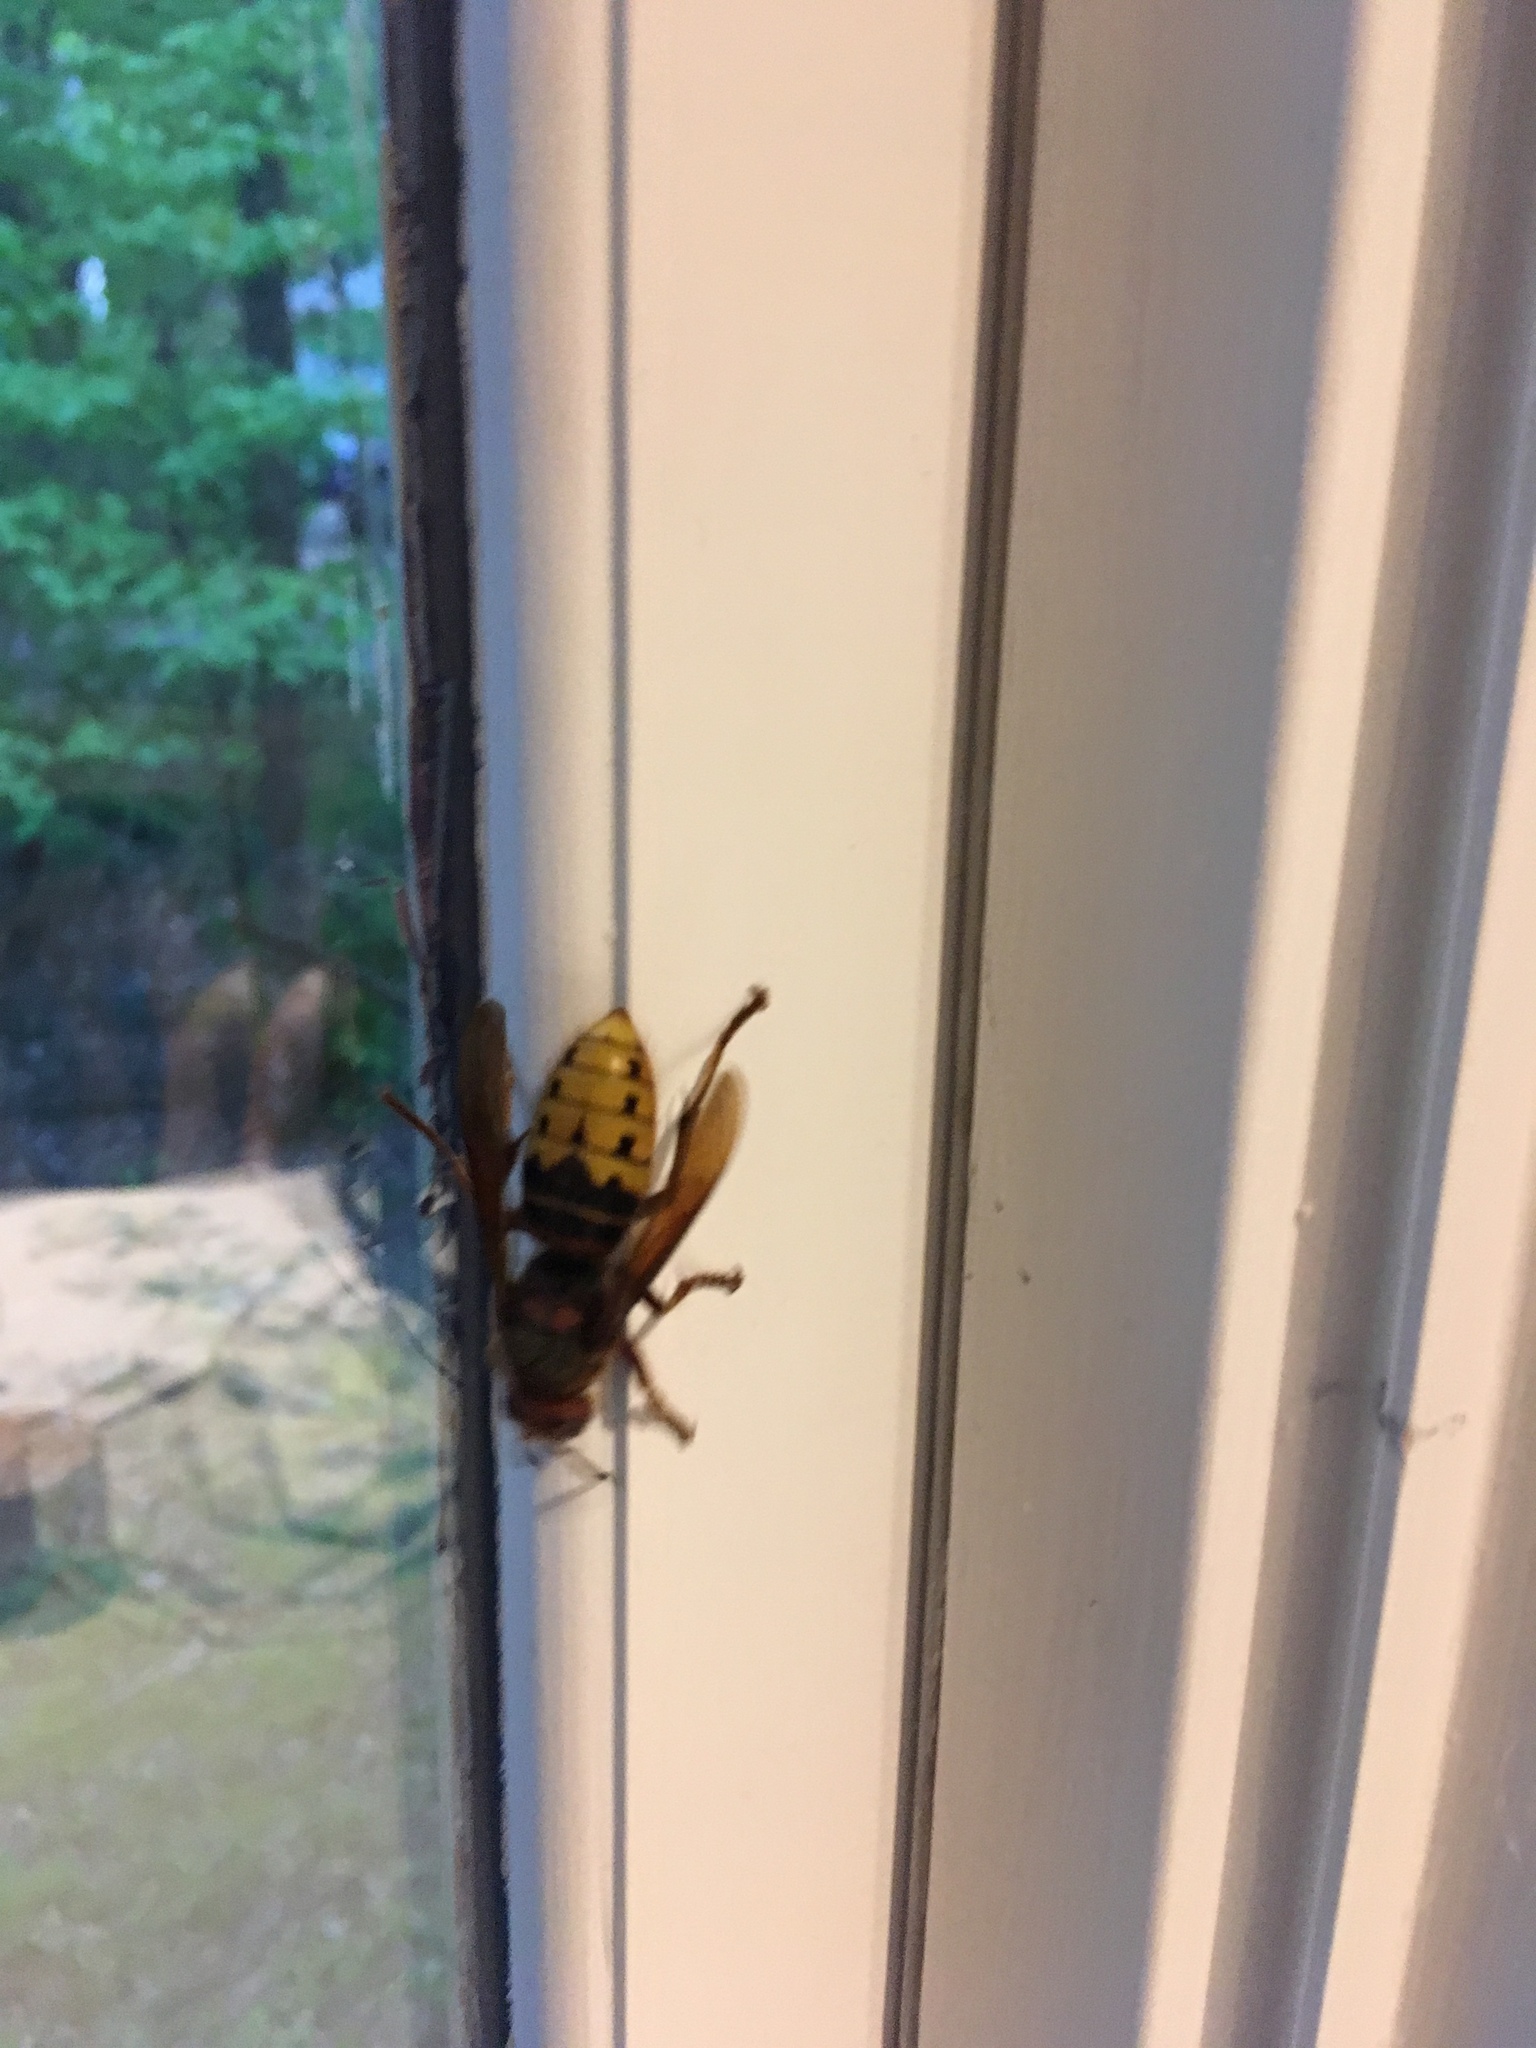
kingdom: Animalia
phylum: Arthropoda
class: Insecta
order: Hymenoptera
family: Vespidae
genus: Vespa
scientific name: Vespa crabro
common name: Hornet
